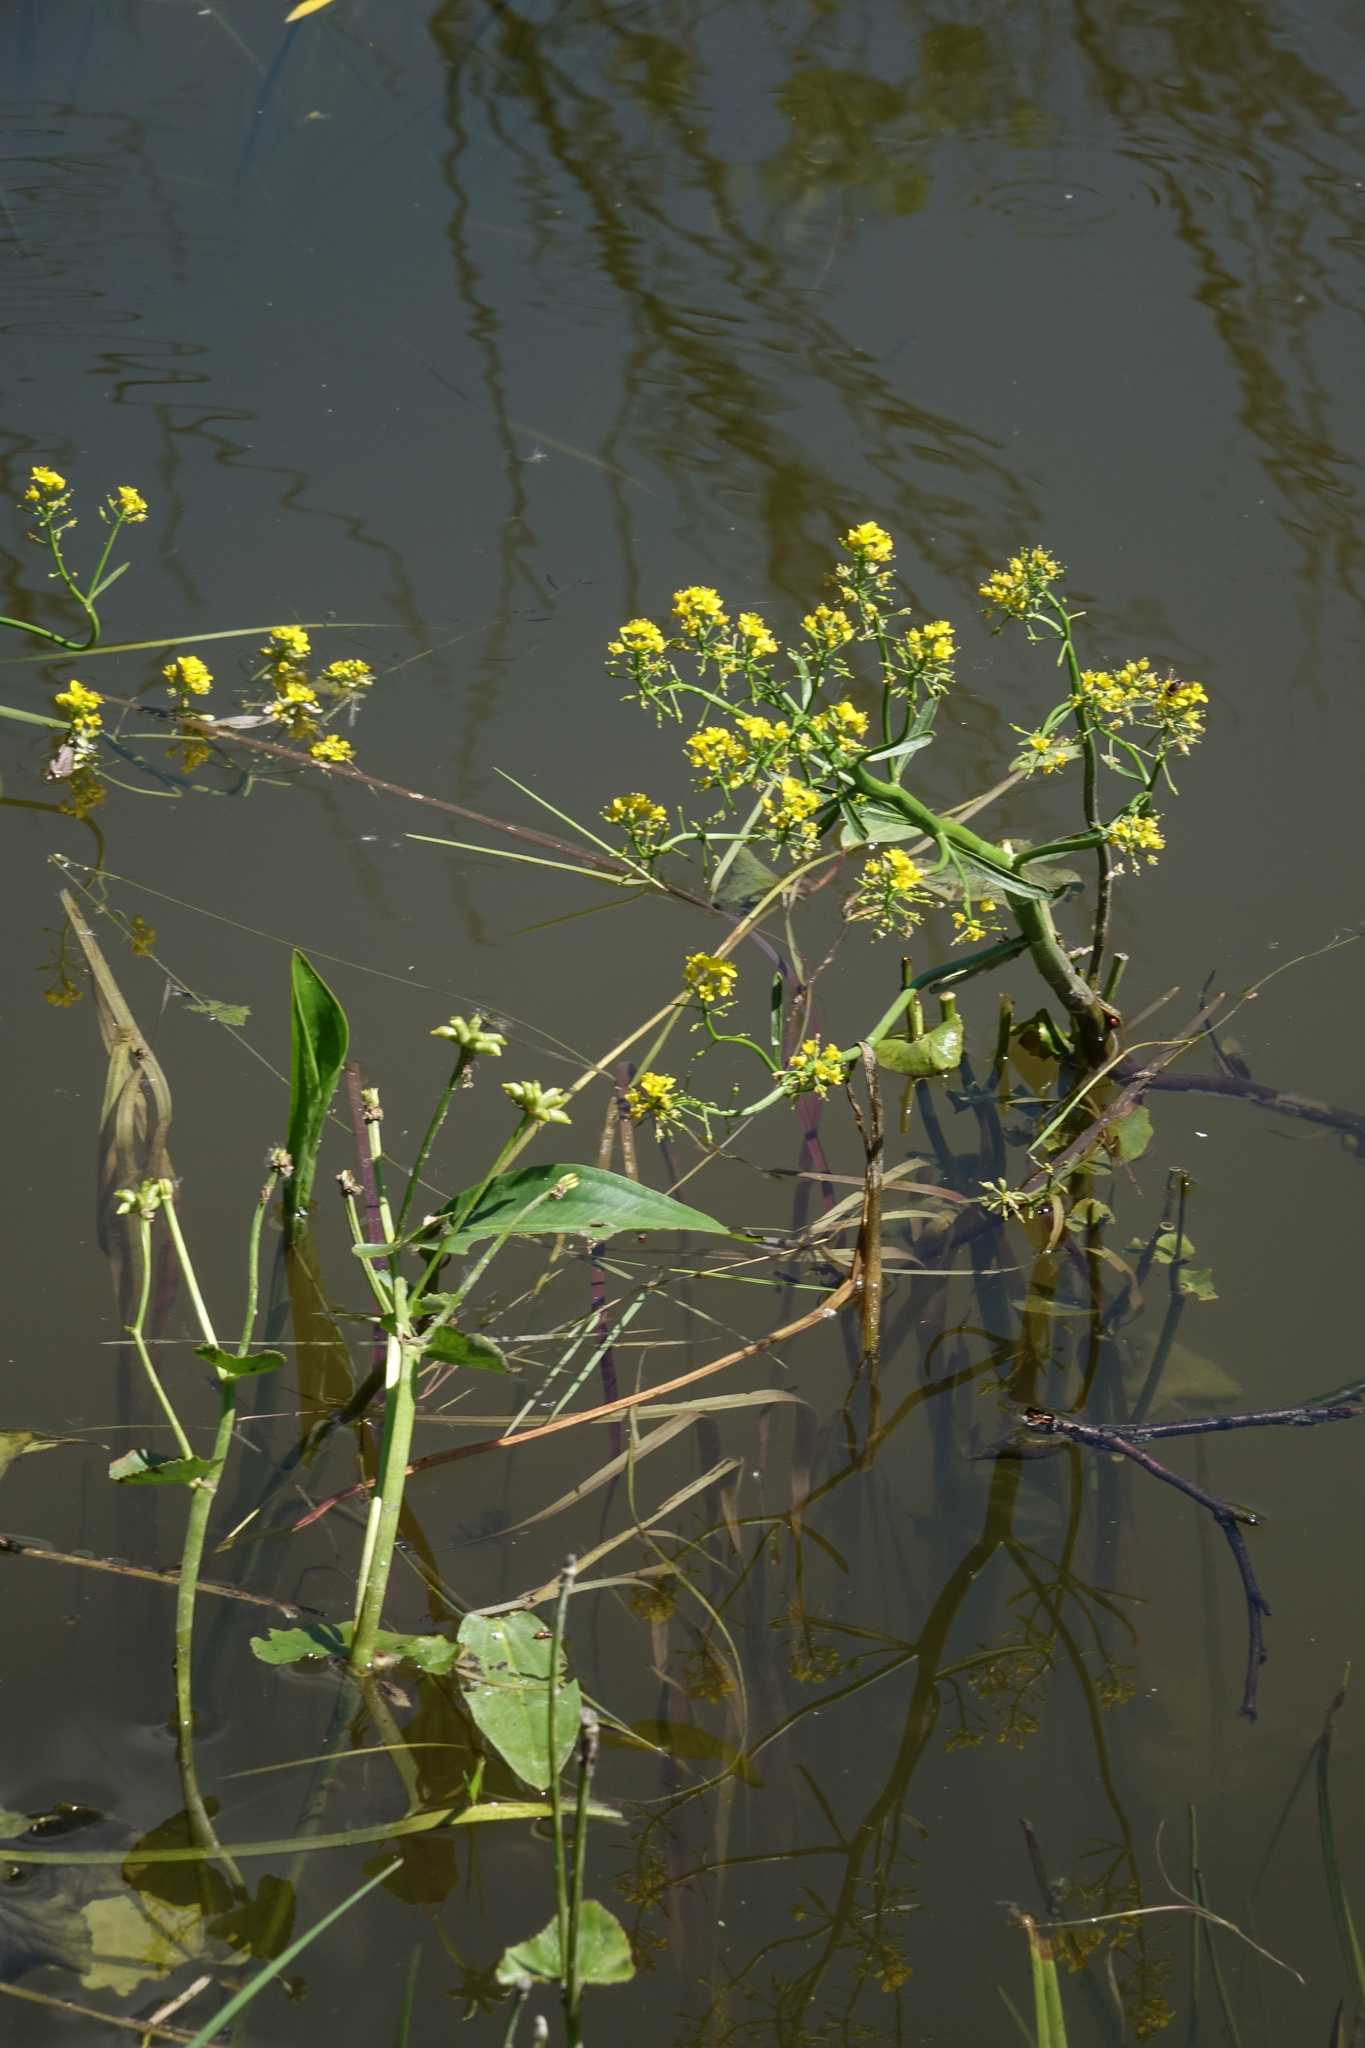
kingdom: Plantae
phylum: Tracheophyta
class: Magnoliopsida
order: Brassicales
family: Brassicaceae
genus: Rorippa
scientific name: Rorippa amphibia
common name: Great yellow-cress
